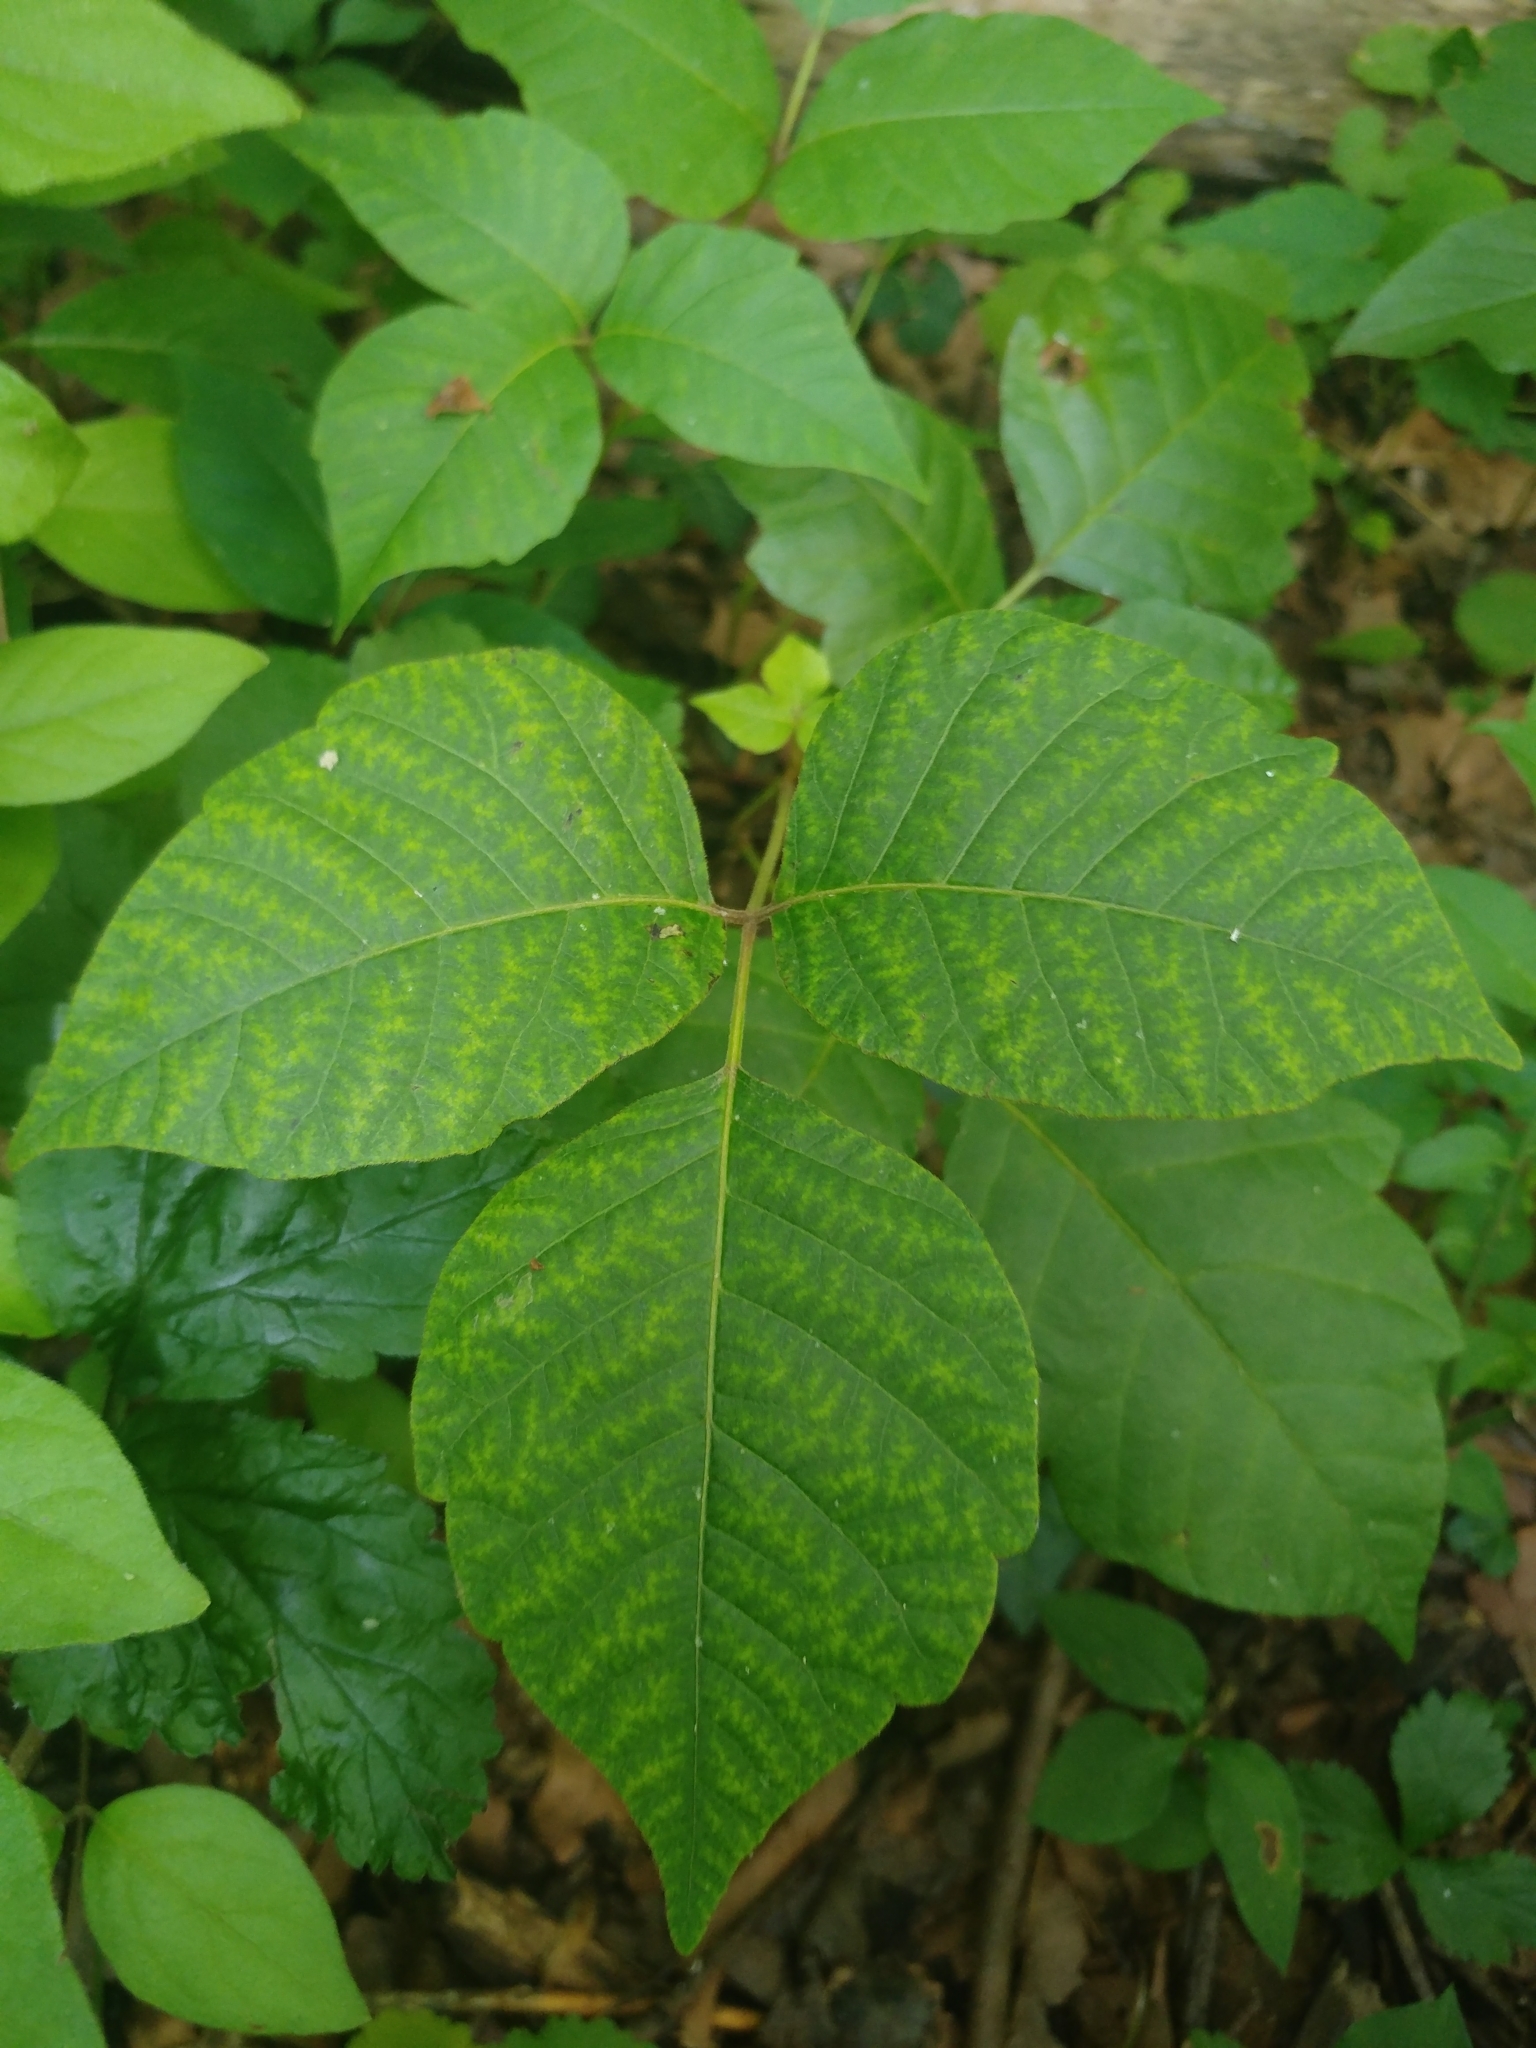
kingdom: Plantae
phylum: Tracheophyta
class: Magnoliopsida
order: Sapindales
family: Anacardiaceae
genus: Toxicodendron
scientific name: Toxicodendron radicans
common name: Poison ivy
